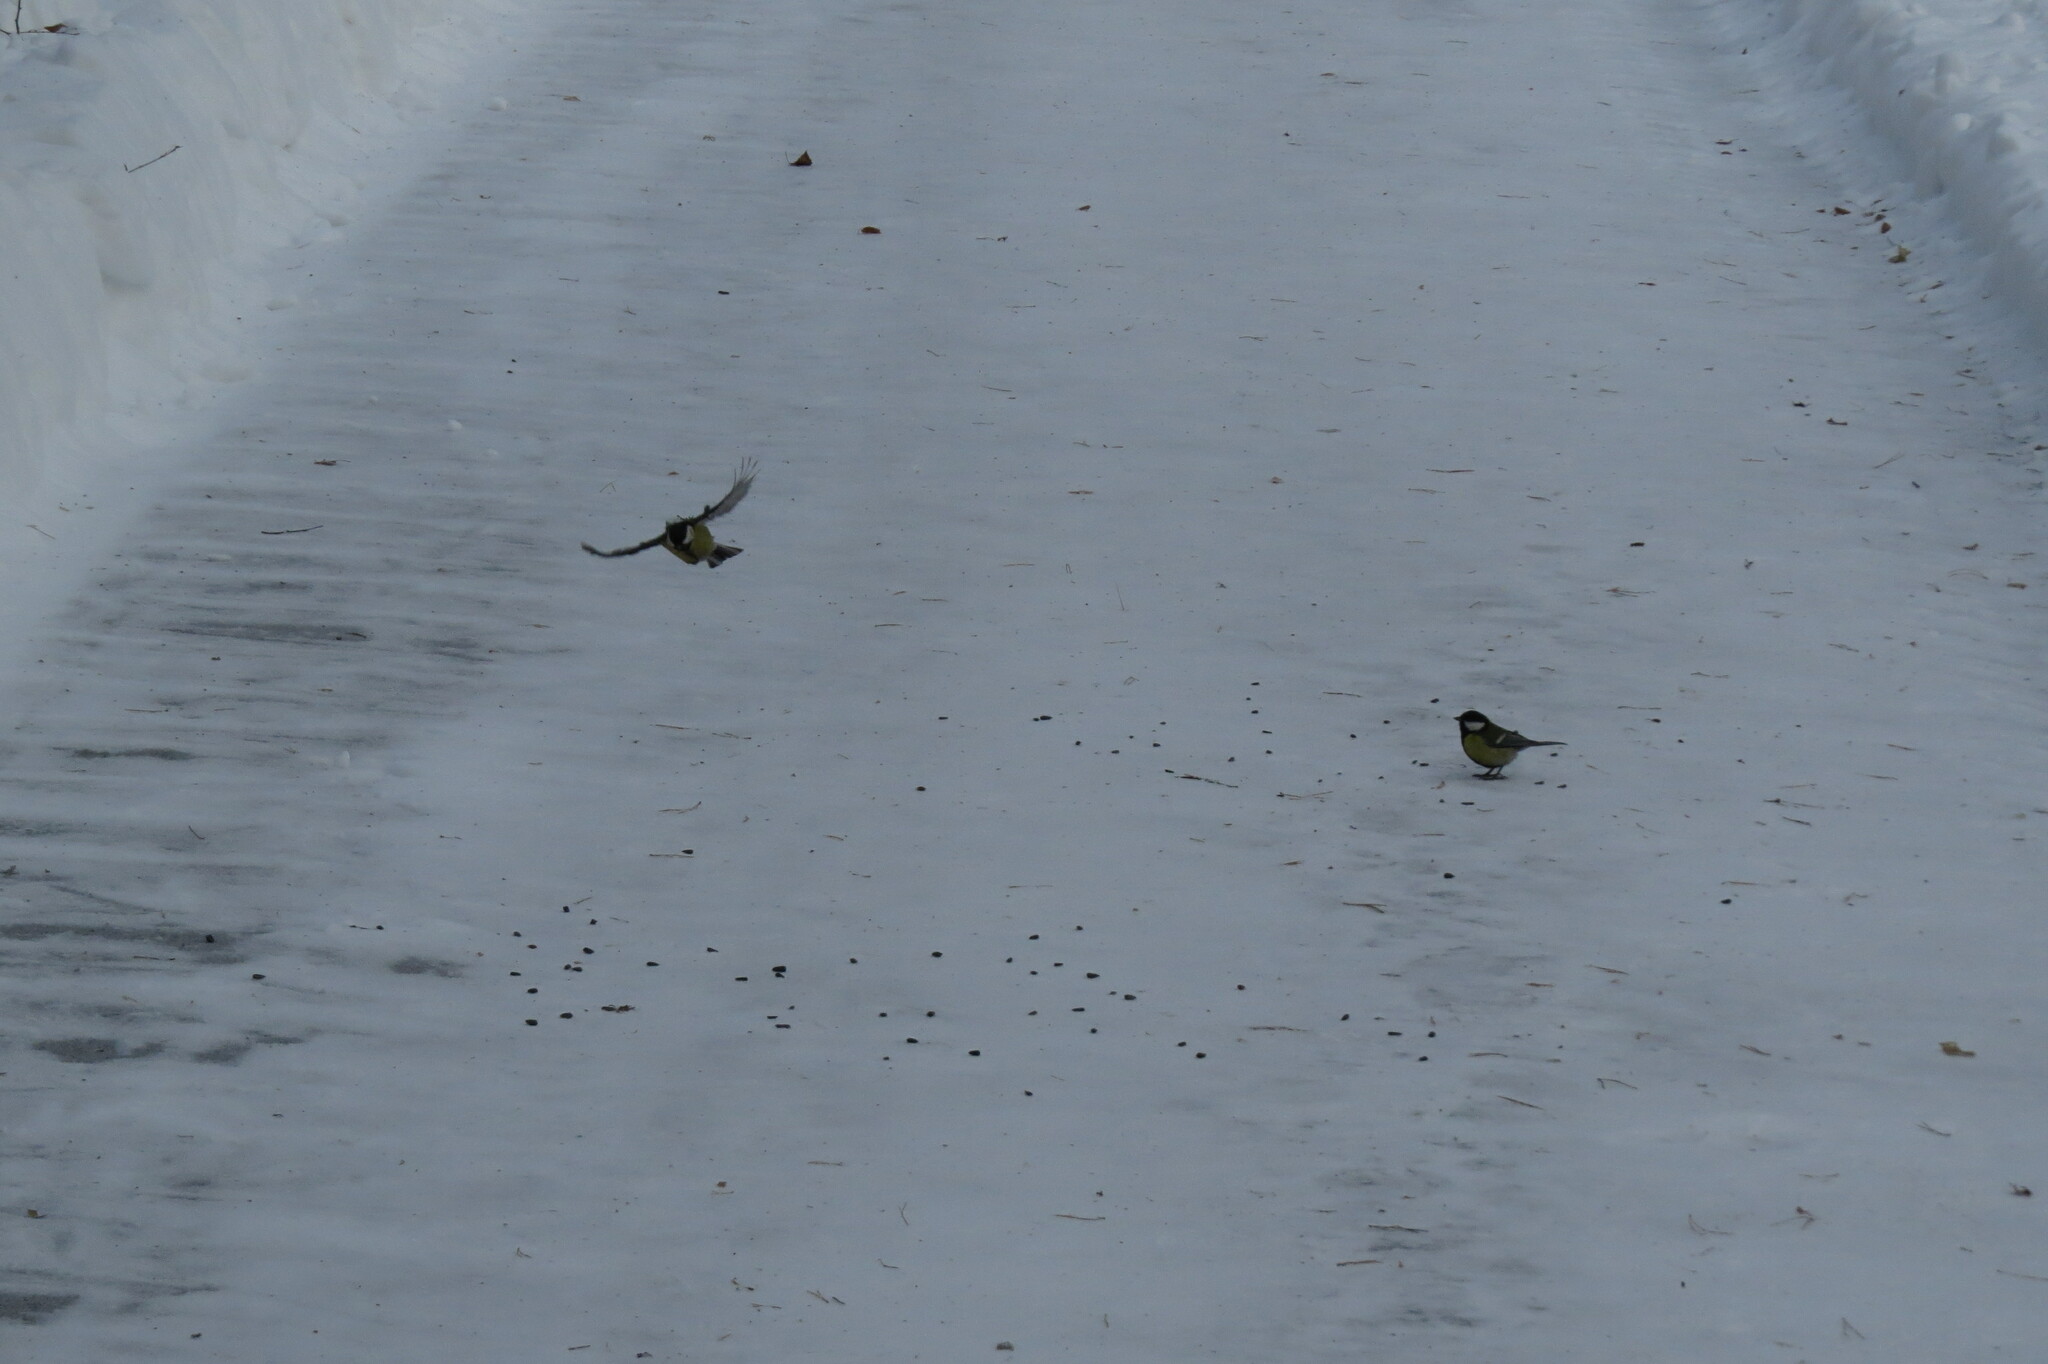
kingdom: Animalia
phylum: Chordata
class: Aves
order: Passeriformes
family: Paridae
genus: Parus
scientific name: Parus major
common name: Great tit
